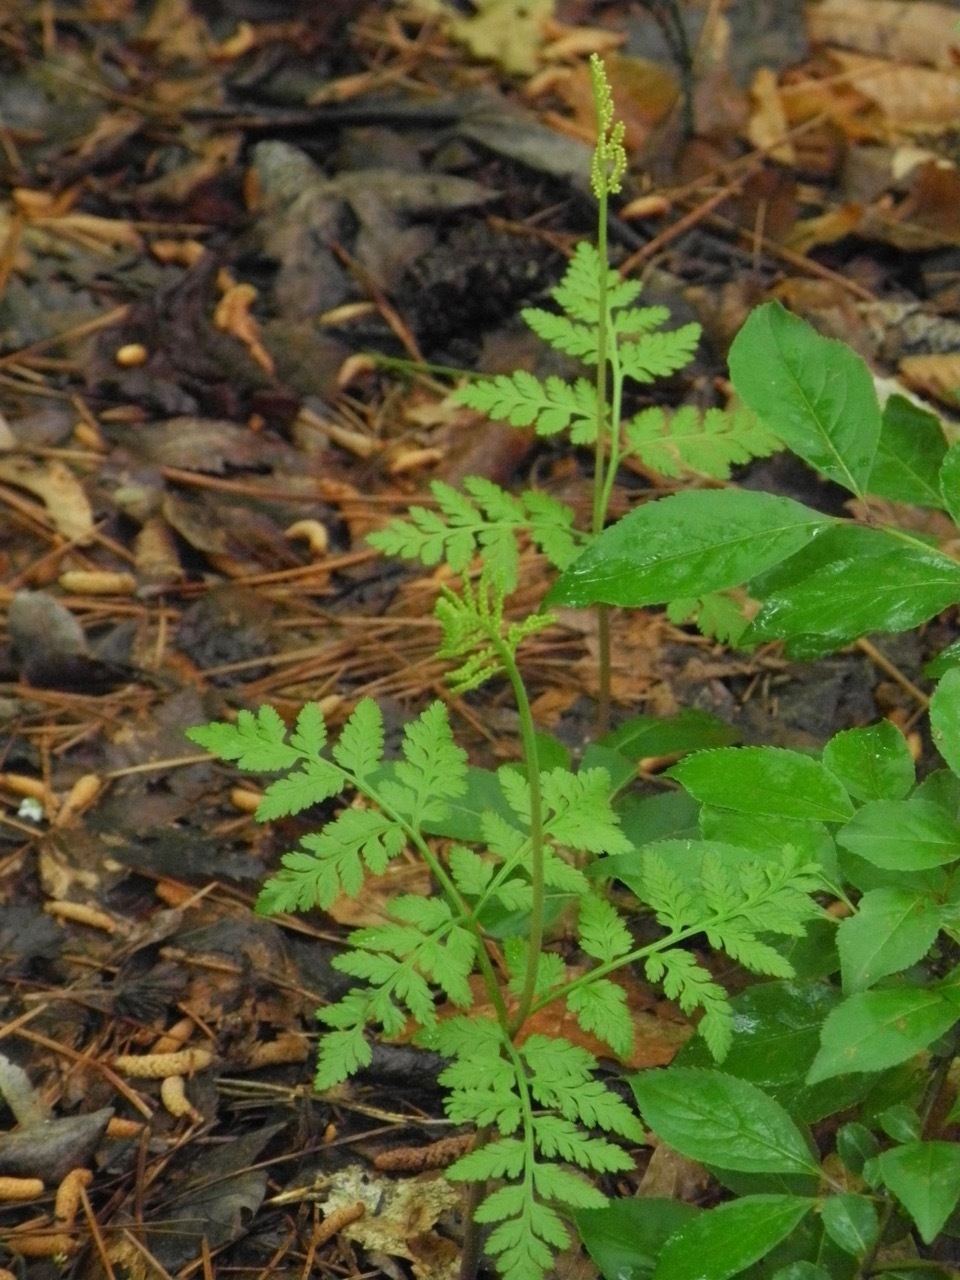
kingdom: Plantae
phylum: Tracheophyta
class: Polypodiopsida
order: Ophioglossales
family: Ophioglossaceae
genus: Botrypus
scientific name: Botrypus virginianus
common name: Common grapefern
